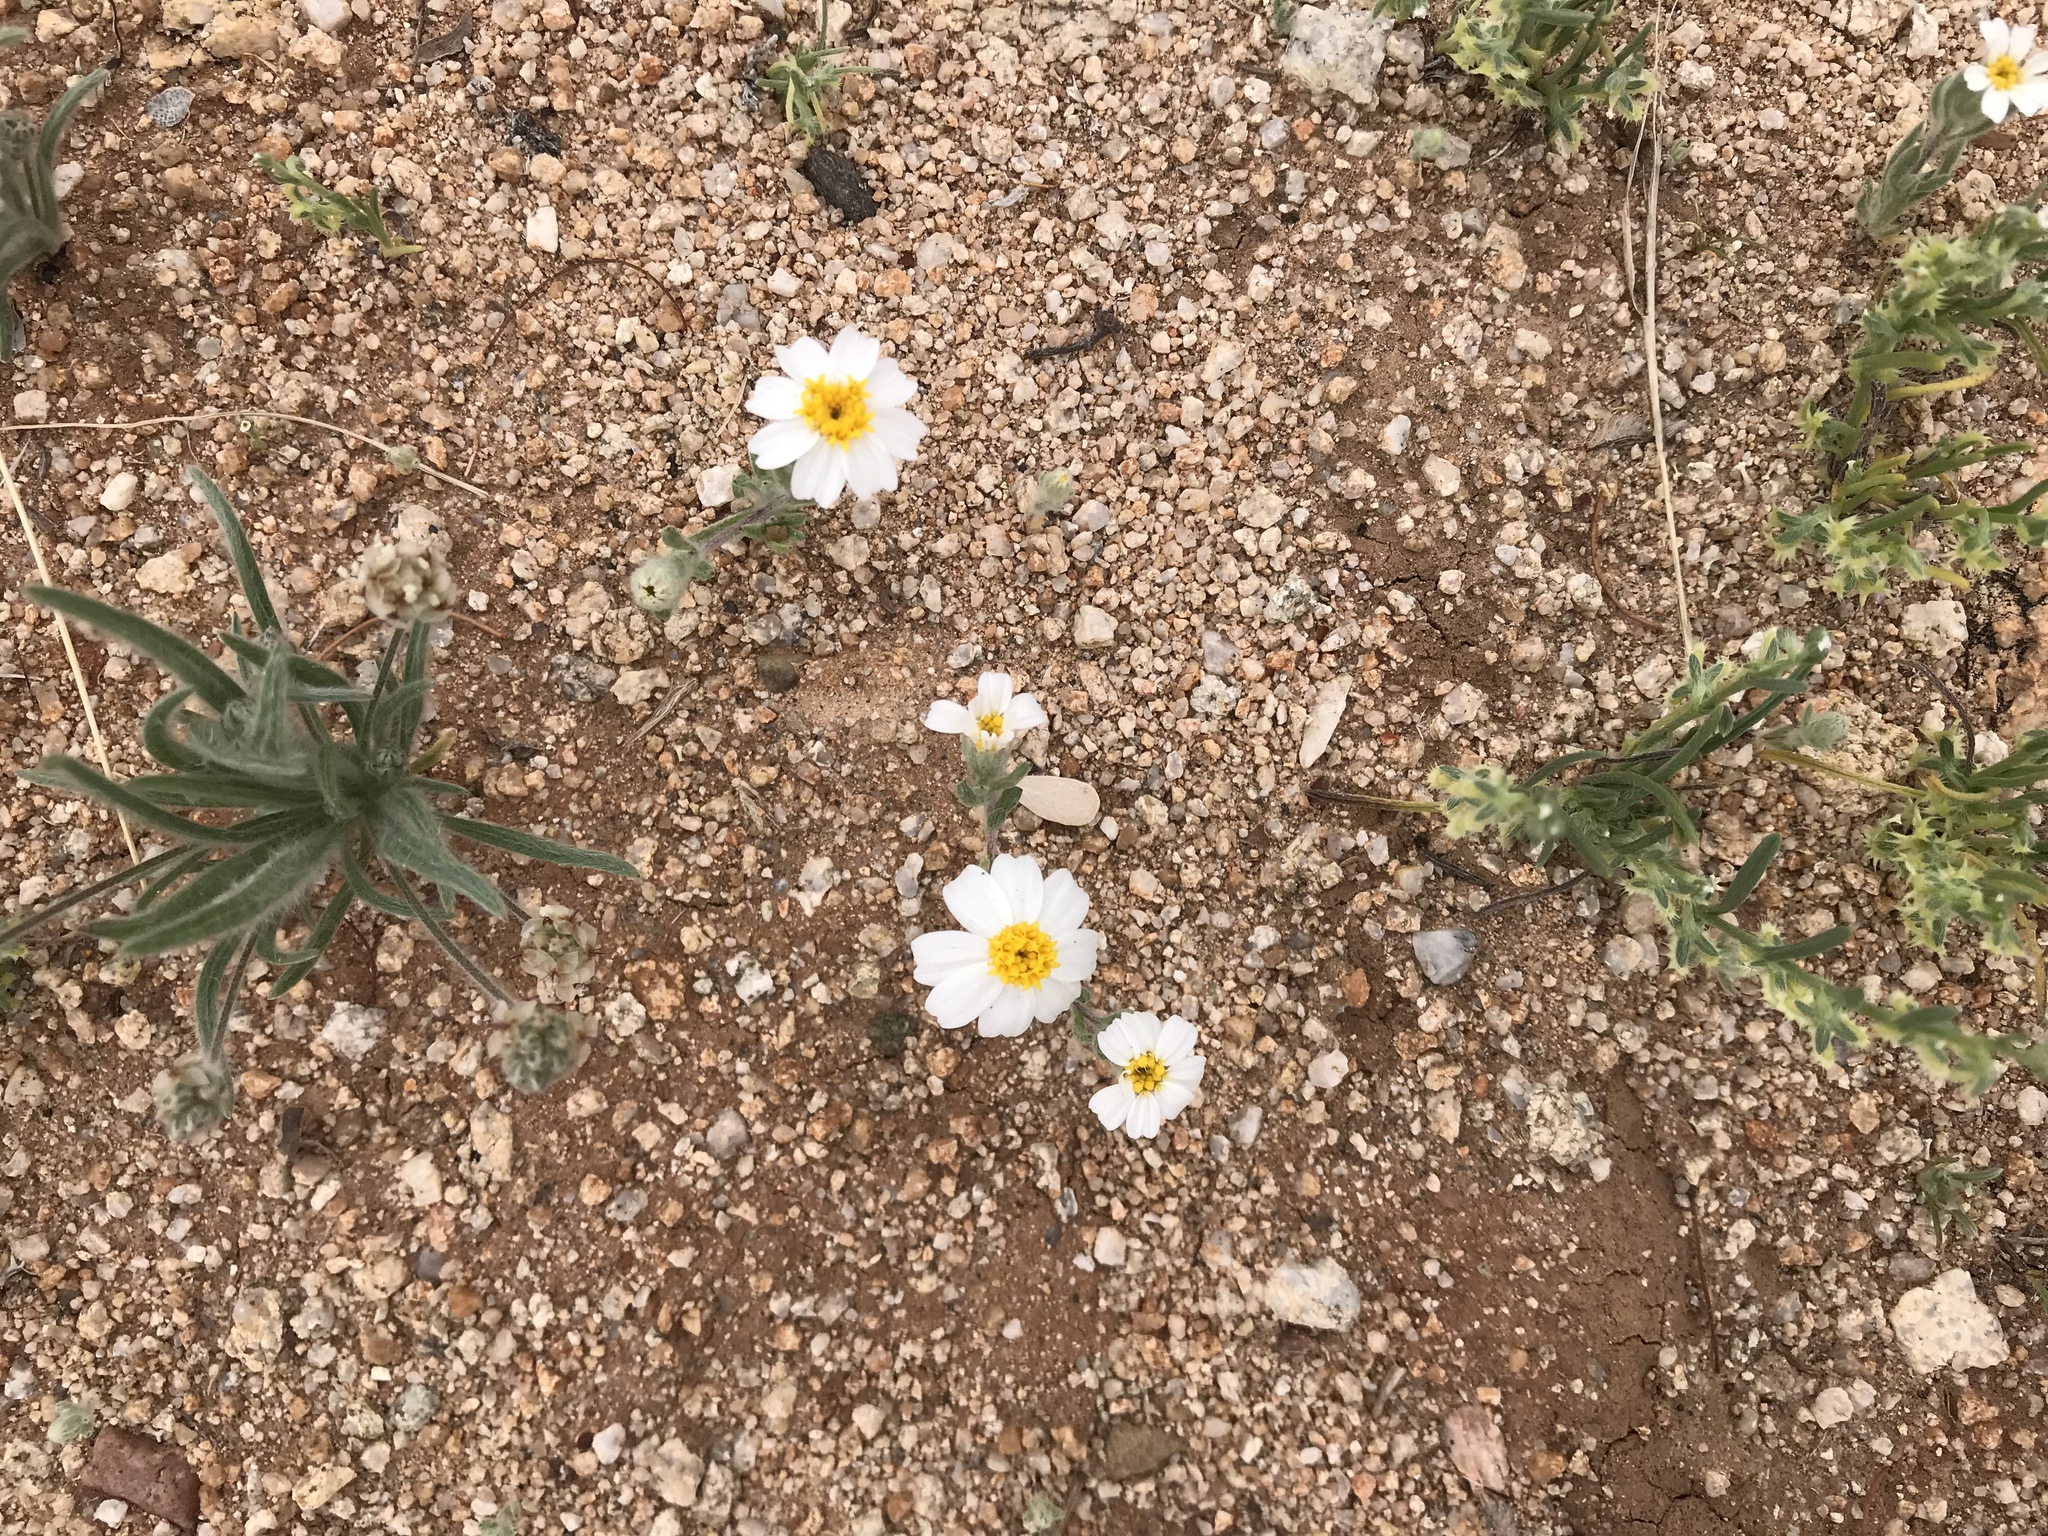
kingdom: Plantae
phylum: Tracheophyta
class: Magnoliopsida
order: Asterales
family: Asteraceae
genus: Eriophyllum
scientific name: Eriophyllum lanosum
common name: White easter-bonnets
